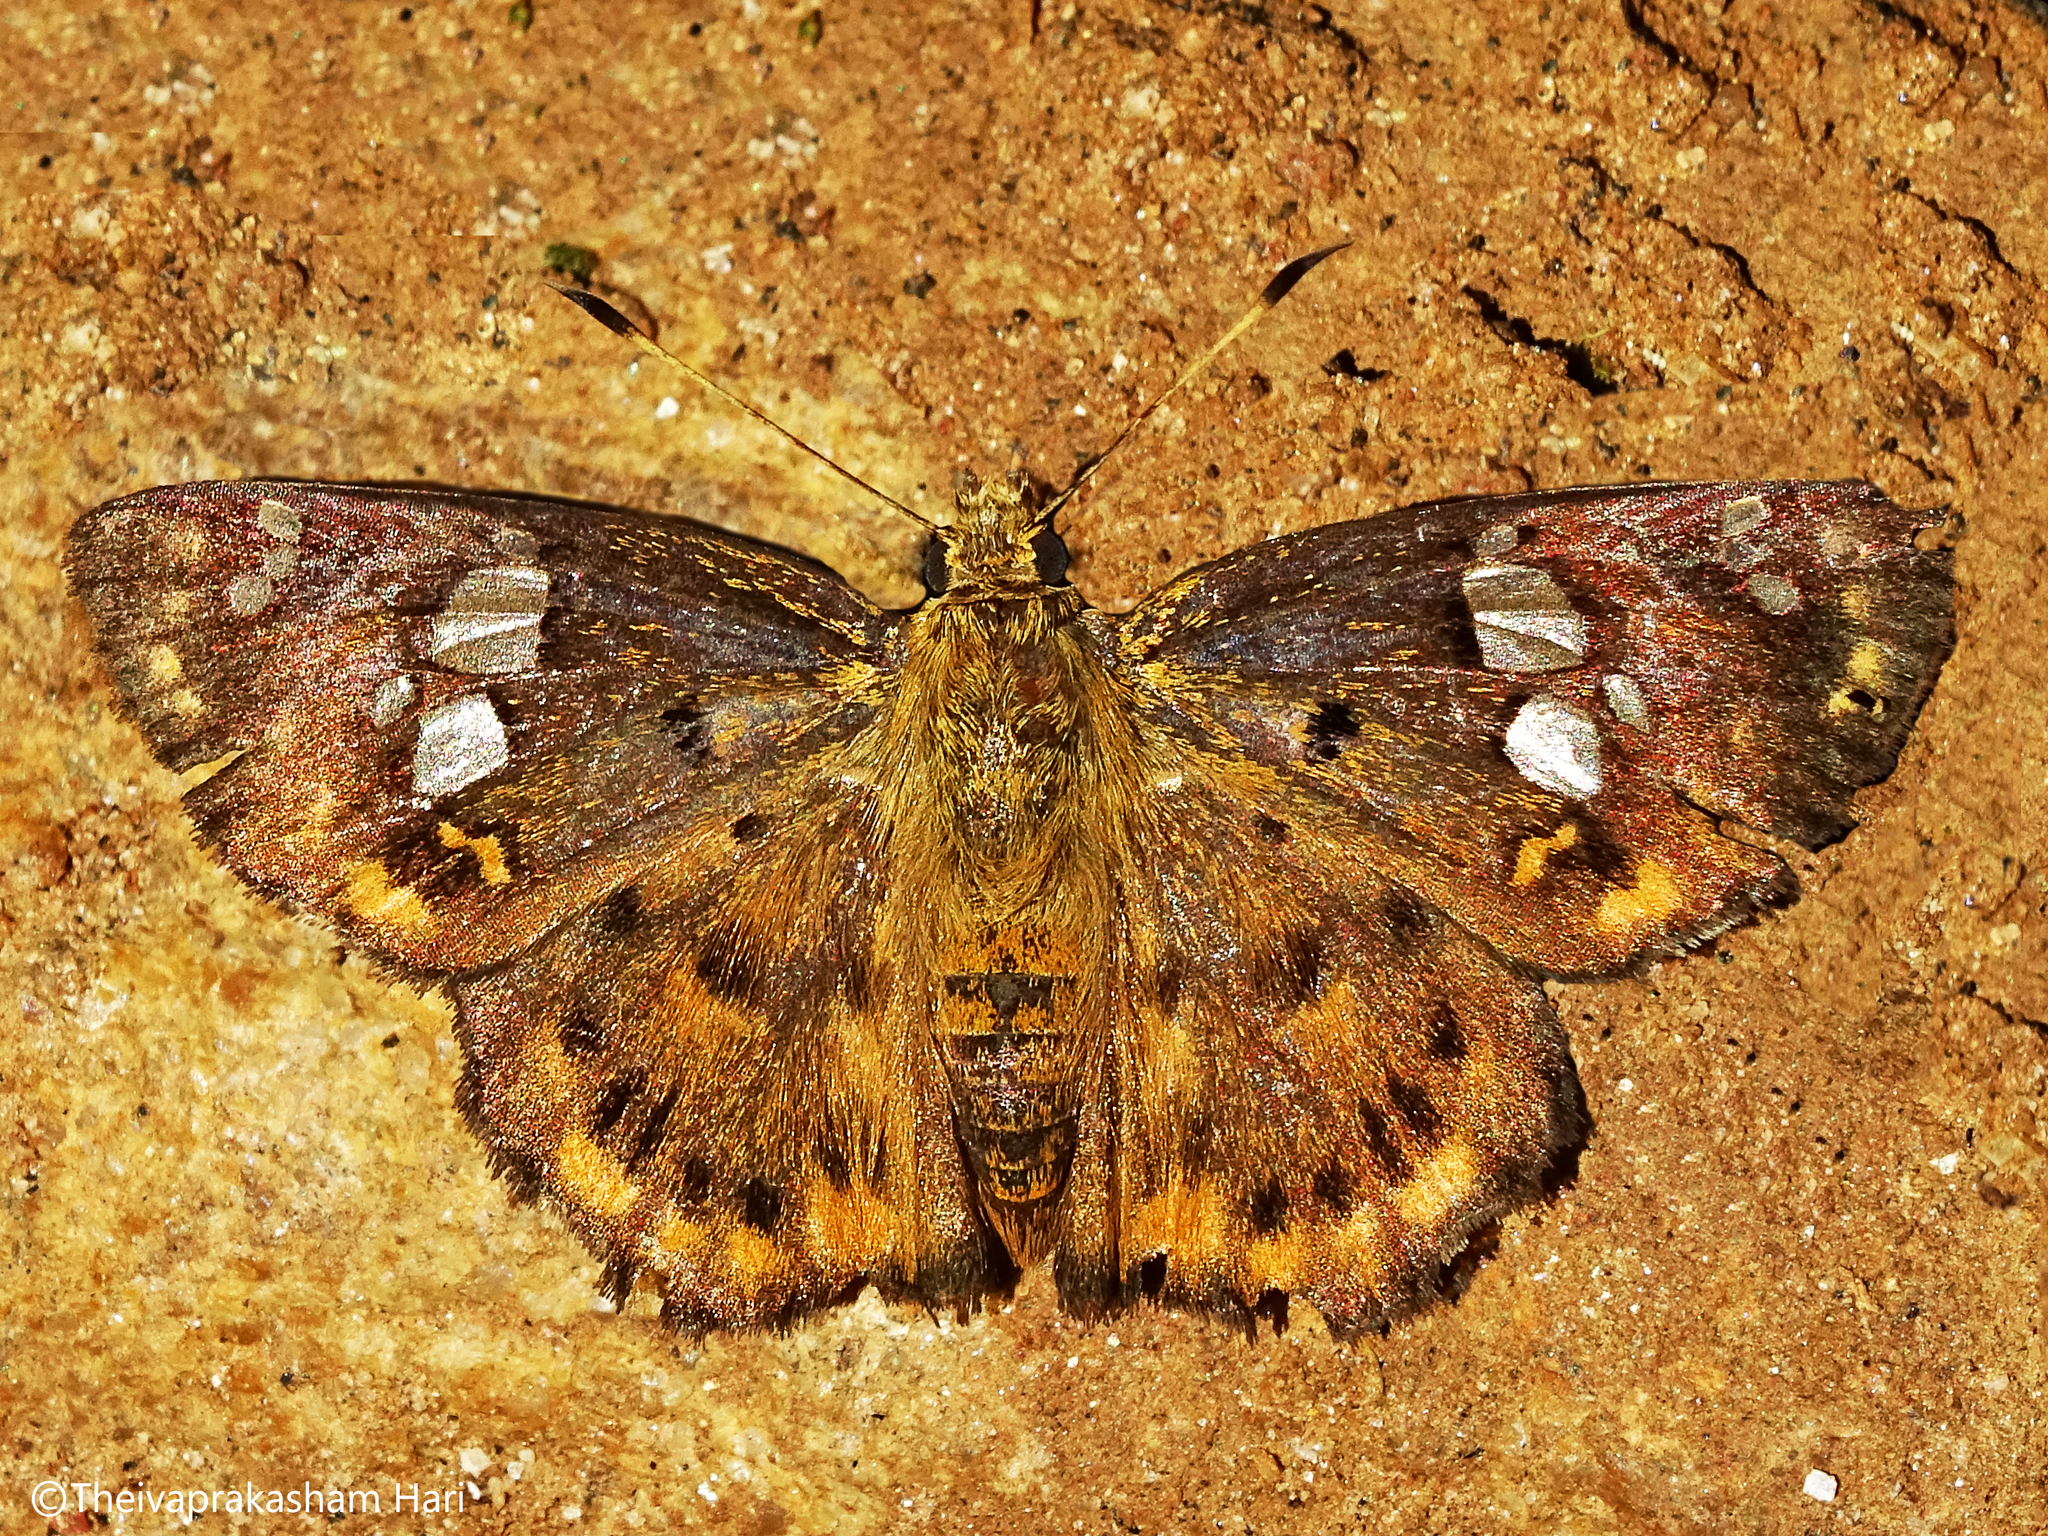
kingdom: Animalia
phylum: Arthropoda
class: Insecta
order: Lepidoptera
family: Hesperiidae
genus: Coladenia
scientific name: Coladenia
